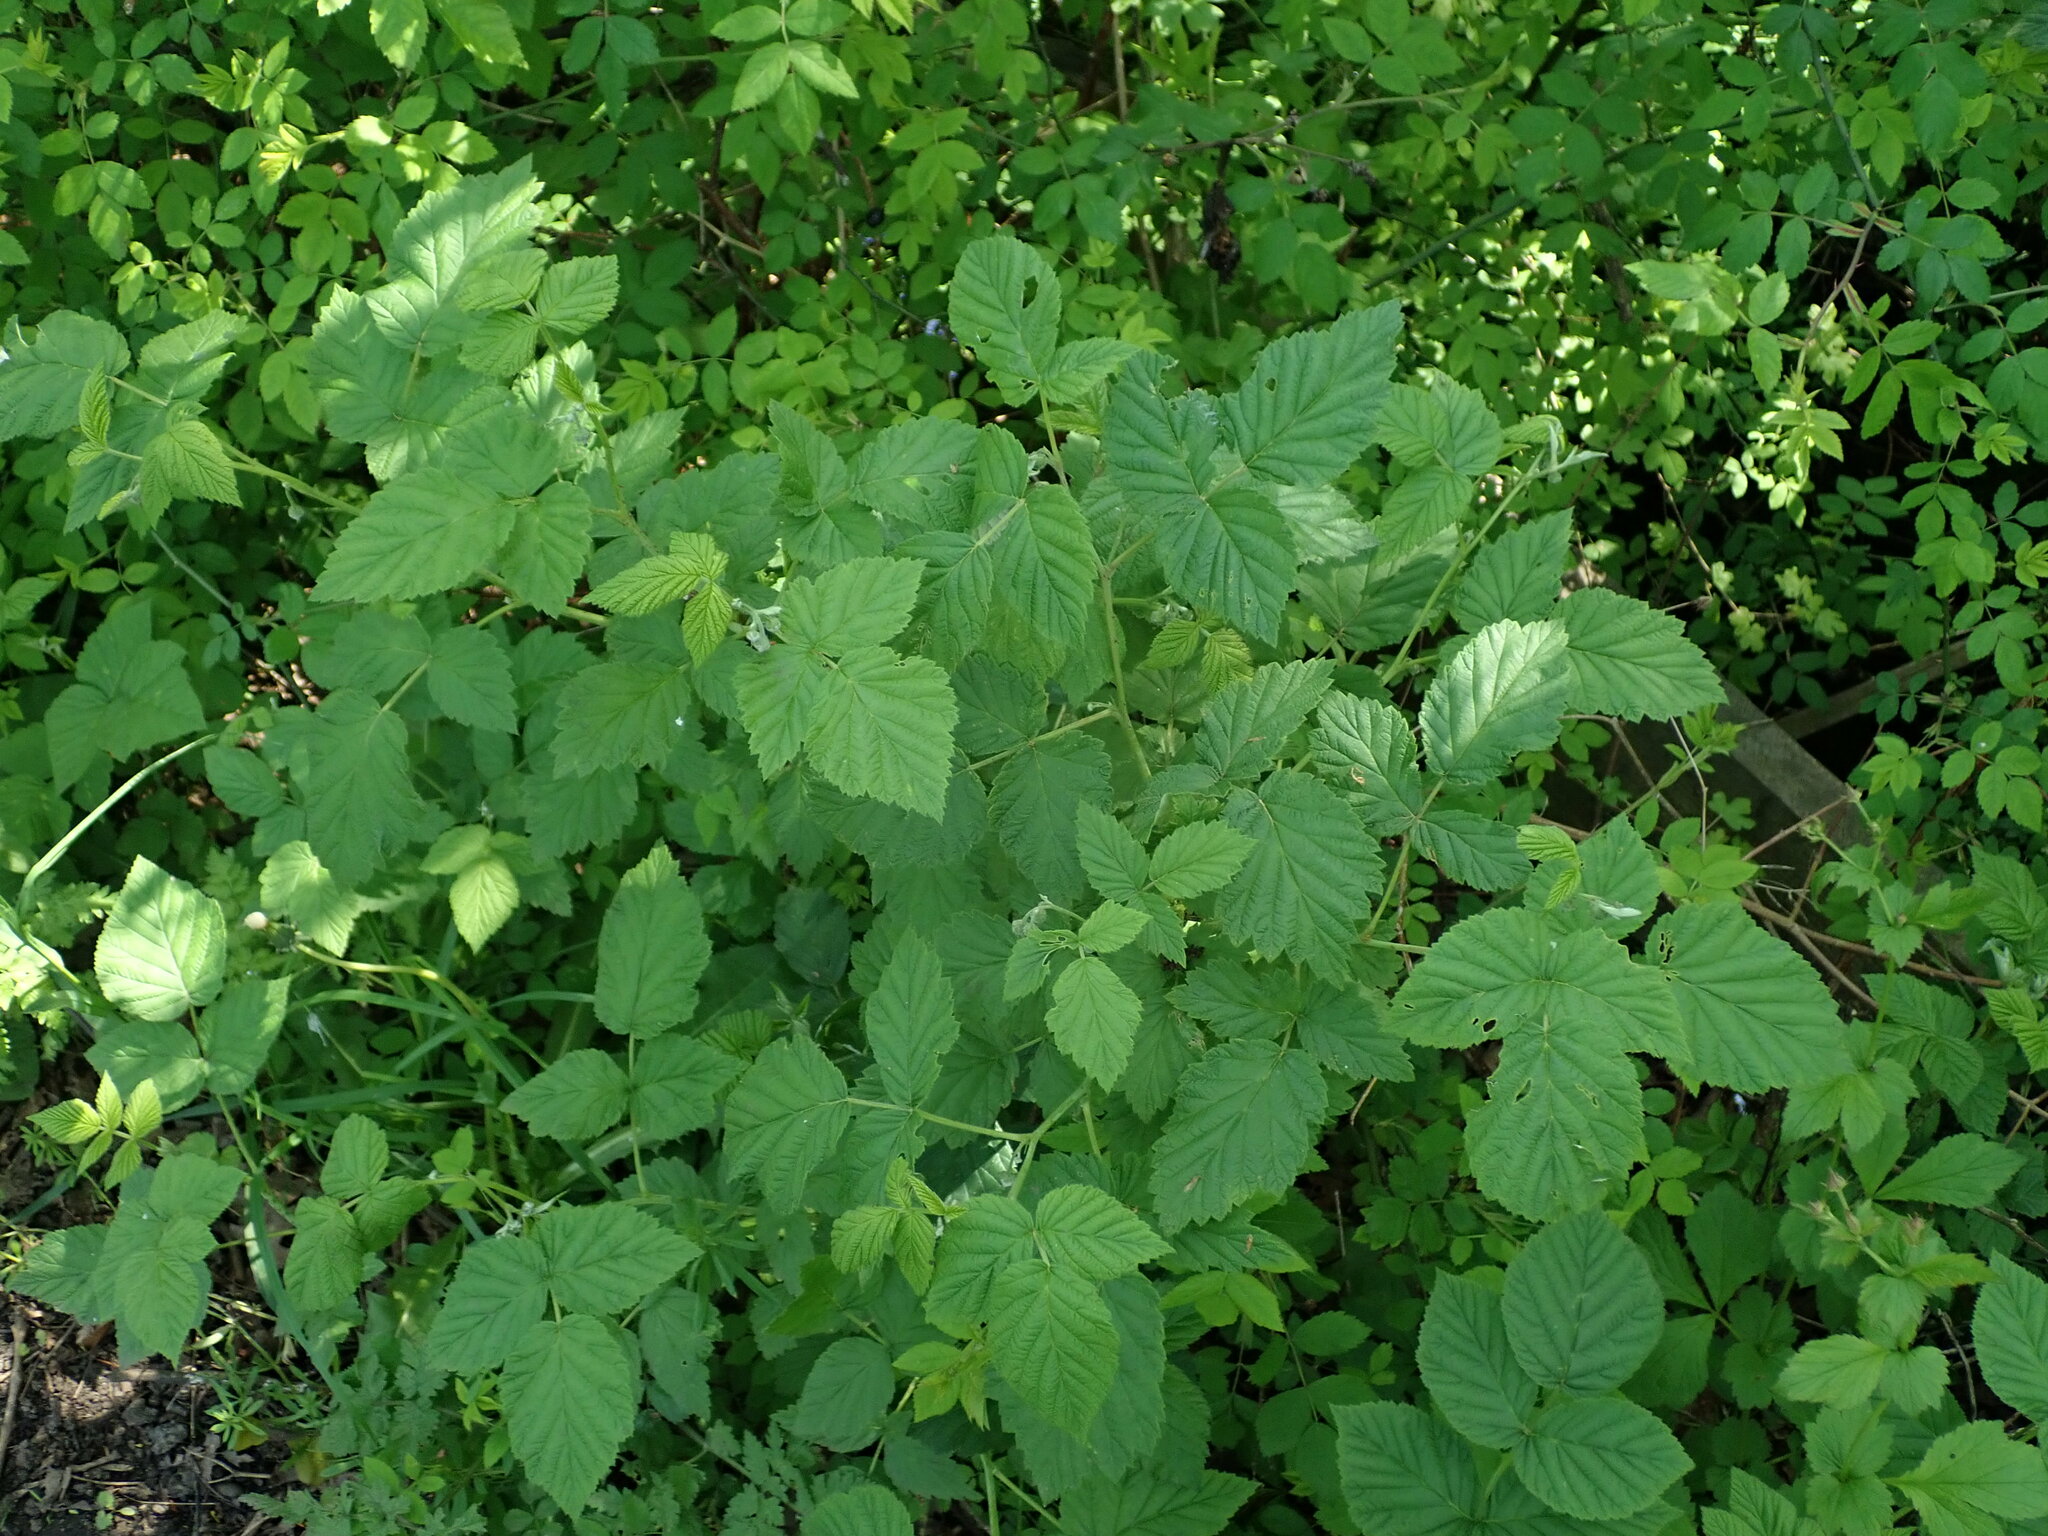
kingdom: Plantae
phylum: Tracheophyta
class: Magnoliopsida
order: Rosales
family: Rosaceae
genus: Rubus
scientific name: Rubus idaeus
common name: Raspberry
